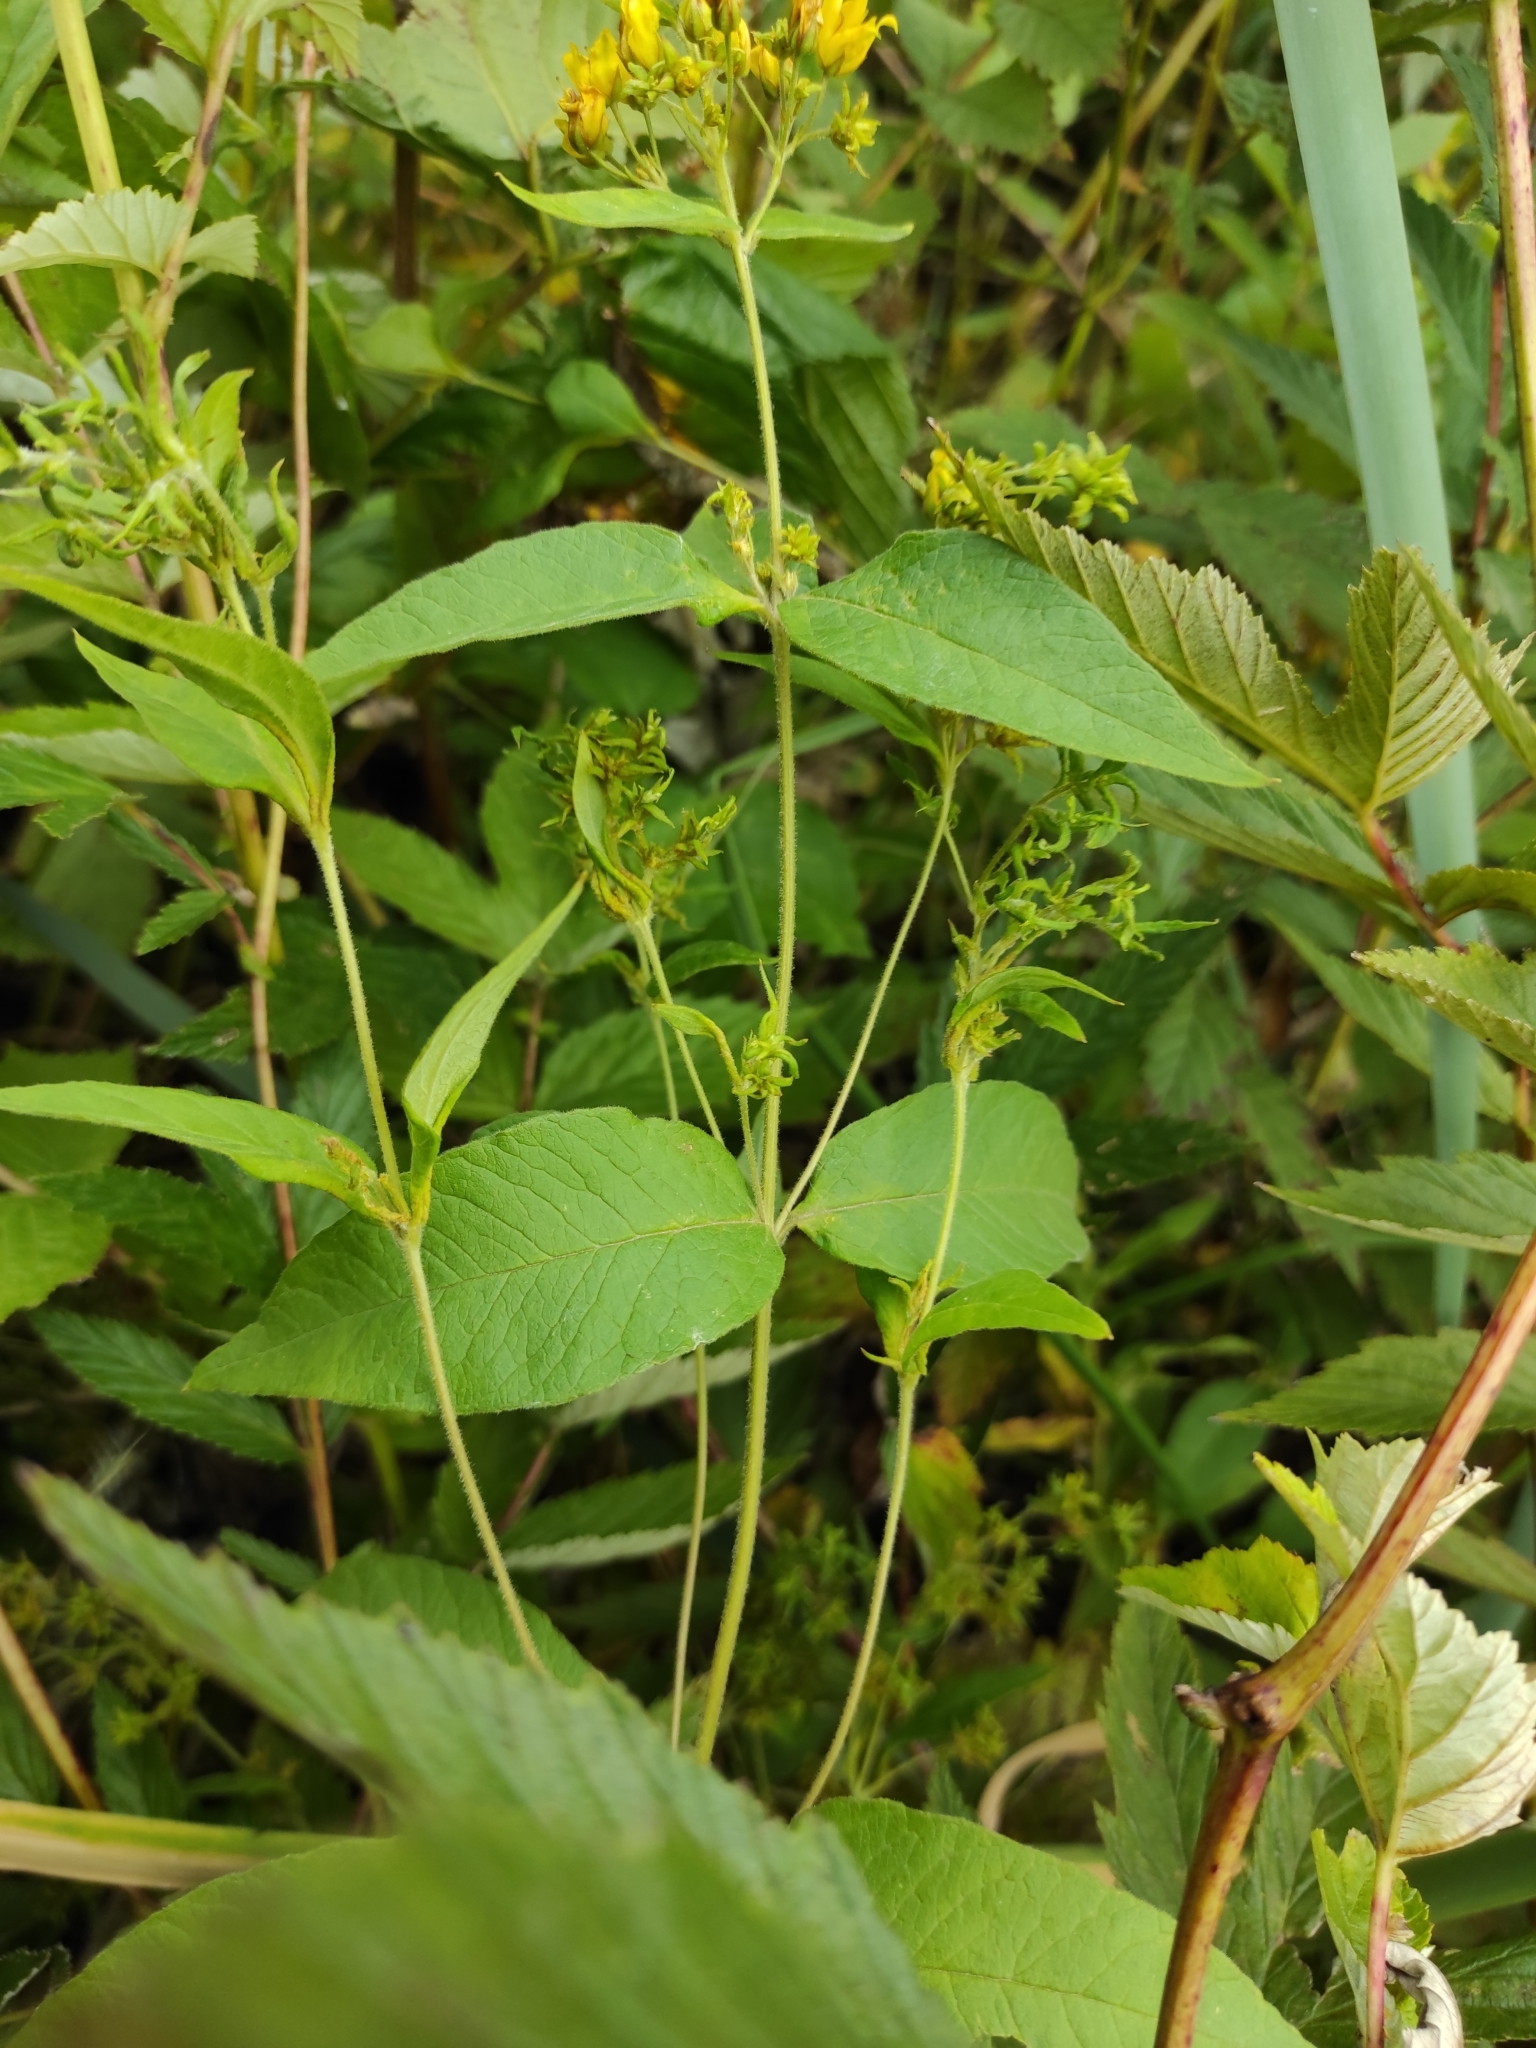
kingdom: Plantae
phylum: Tracheophyta
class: Magnoliopsida
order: Ericales
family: Primulaceae
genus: Lysimachia
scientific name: Lysimachia vulgaris
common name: Yellow loosestrife
